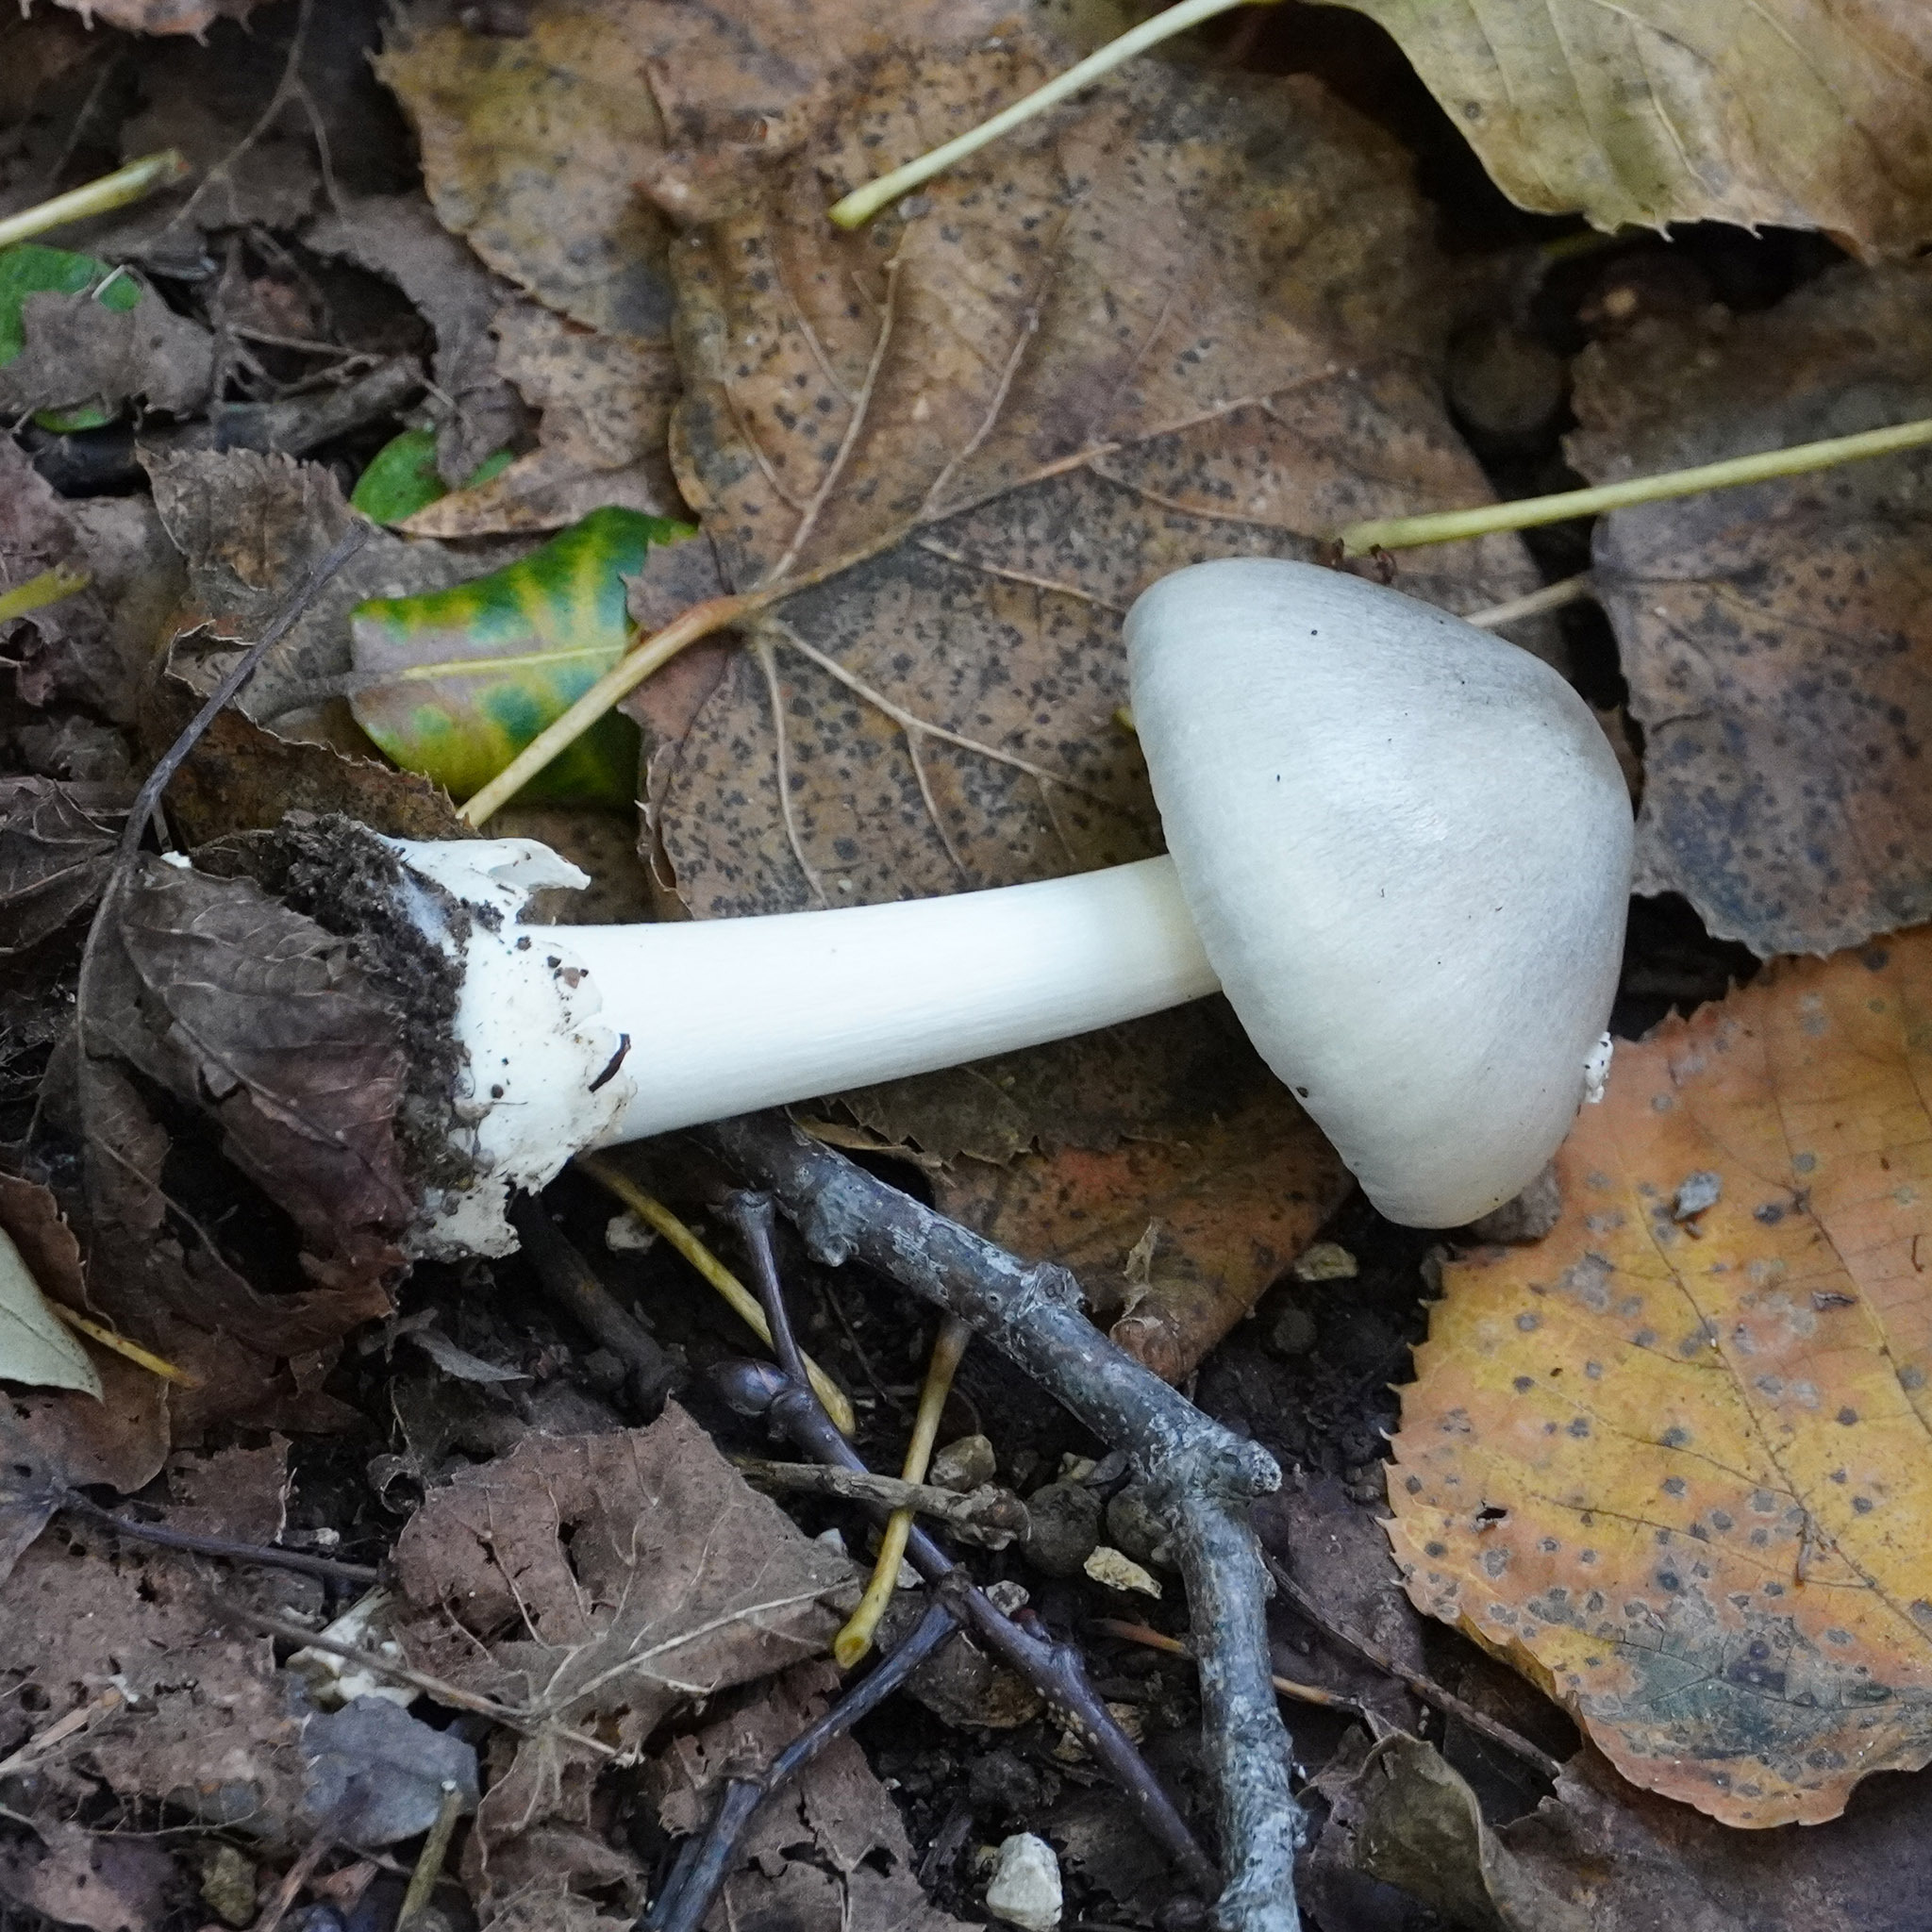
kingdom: Fungi
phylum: Basidiomycota
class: Agaricomycetes
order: Agaricales
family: Pluteaceae
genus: Volvopluteus
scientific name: Volvopluteus gloiocephalus
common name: Stubble rosegill
